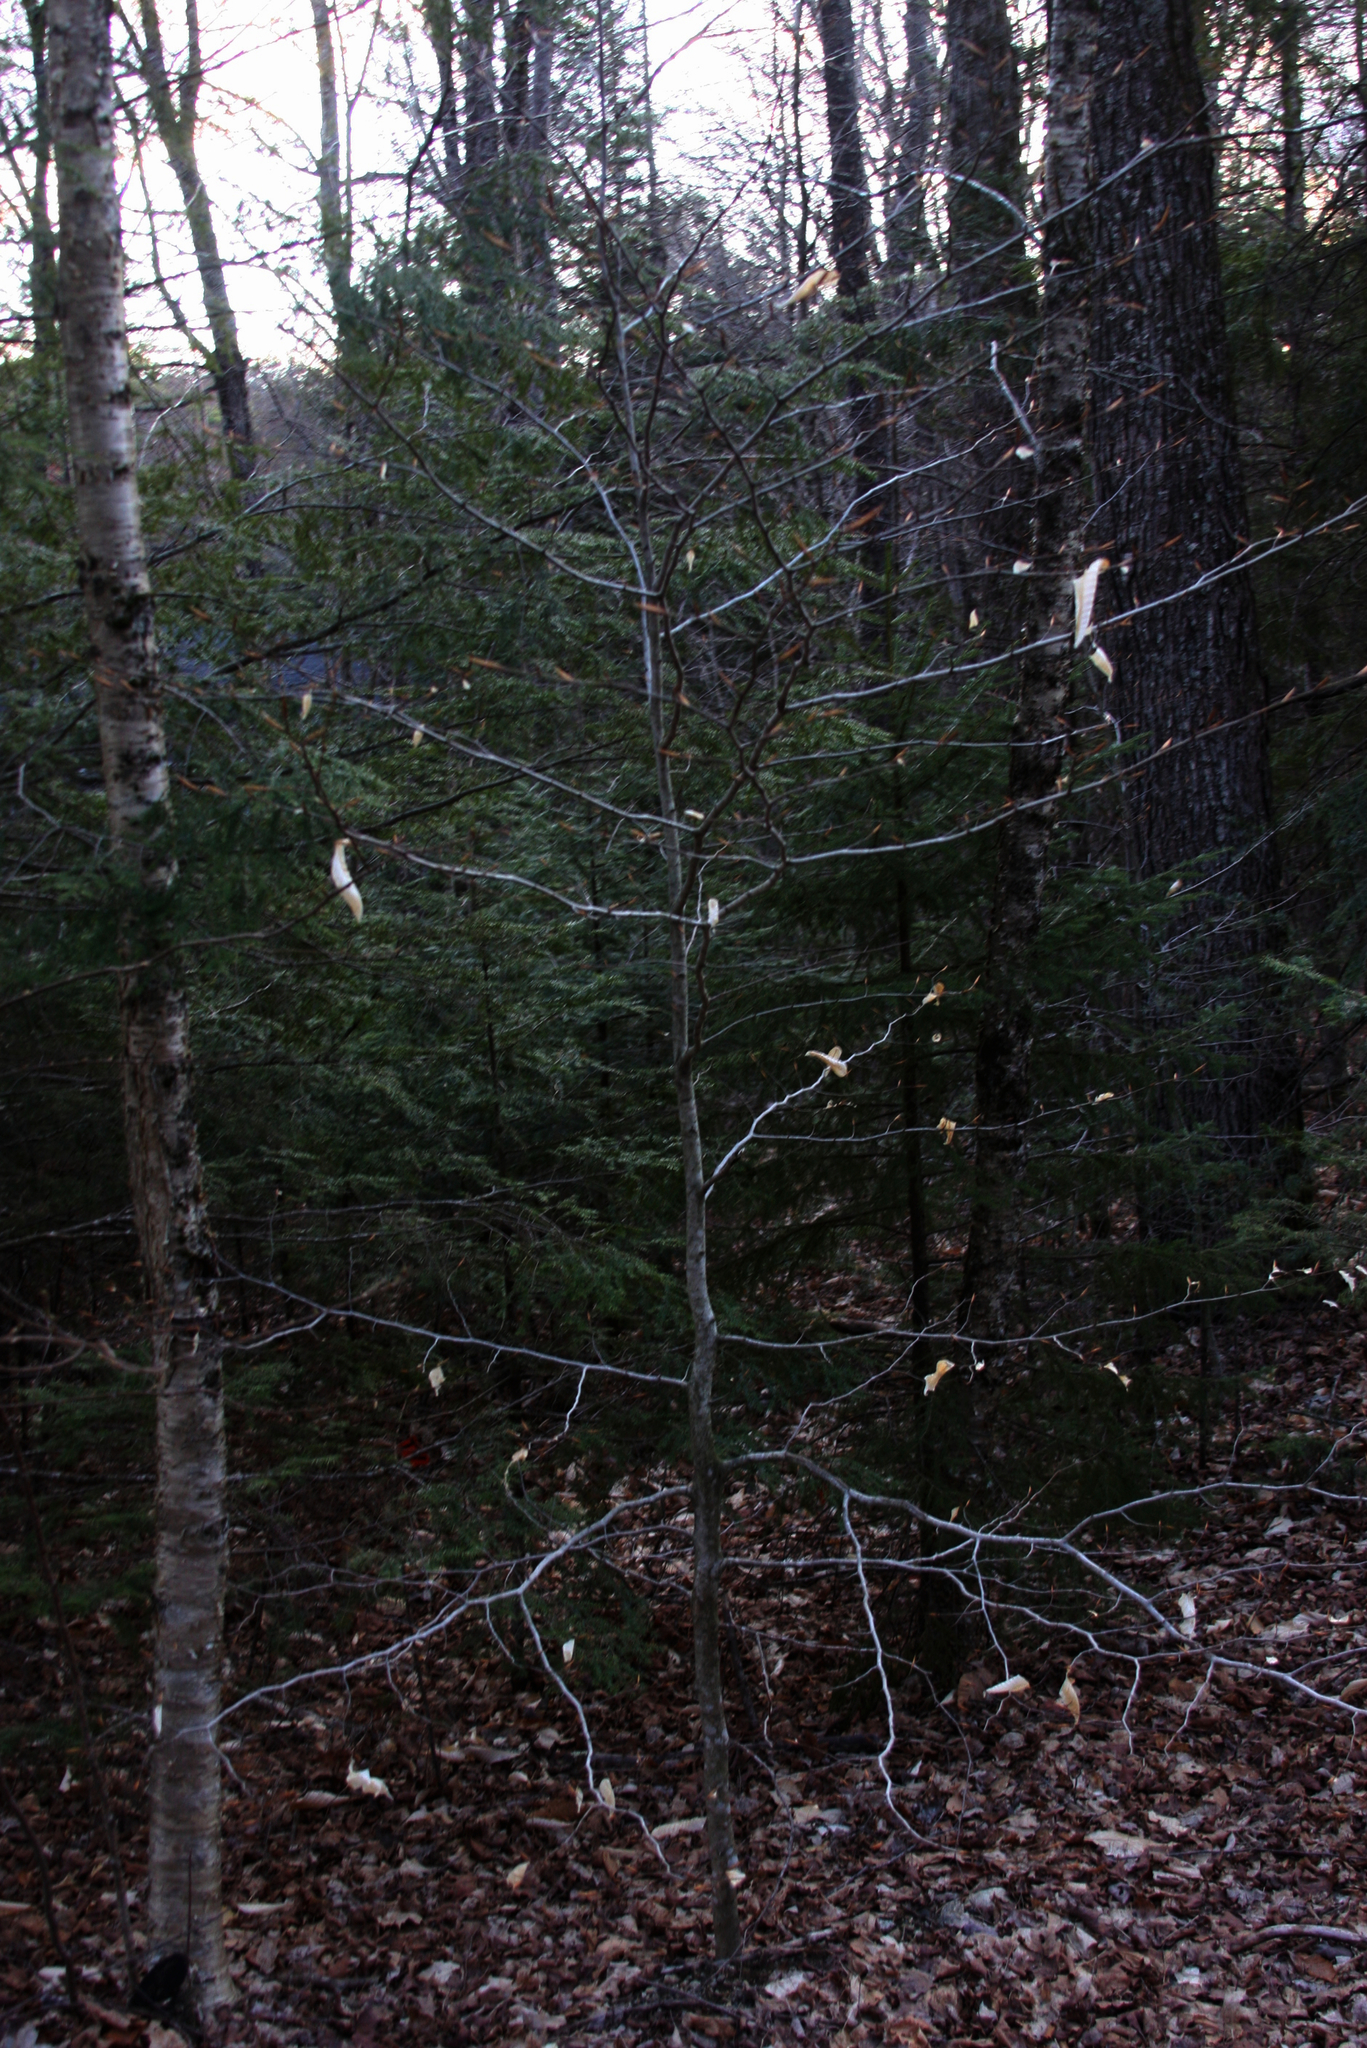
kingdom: Plantae
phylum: Tracheophyta
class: Magnoliopsida
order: Fagales
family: Fagaceae
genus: Fagus
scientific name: Fagus grandifolia
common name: American beech
